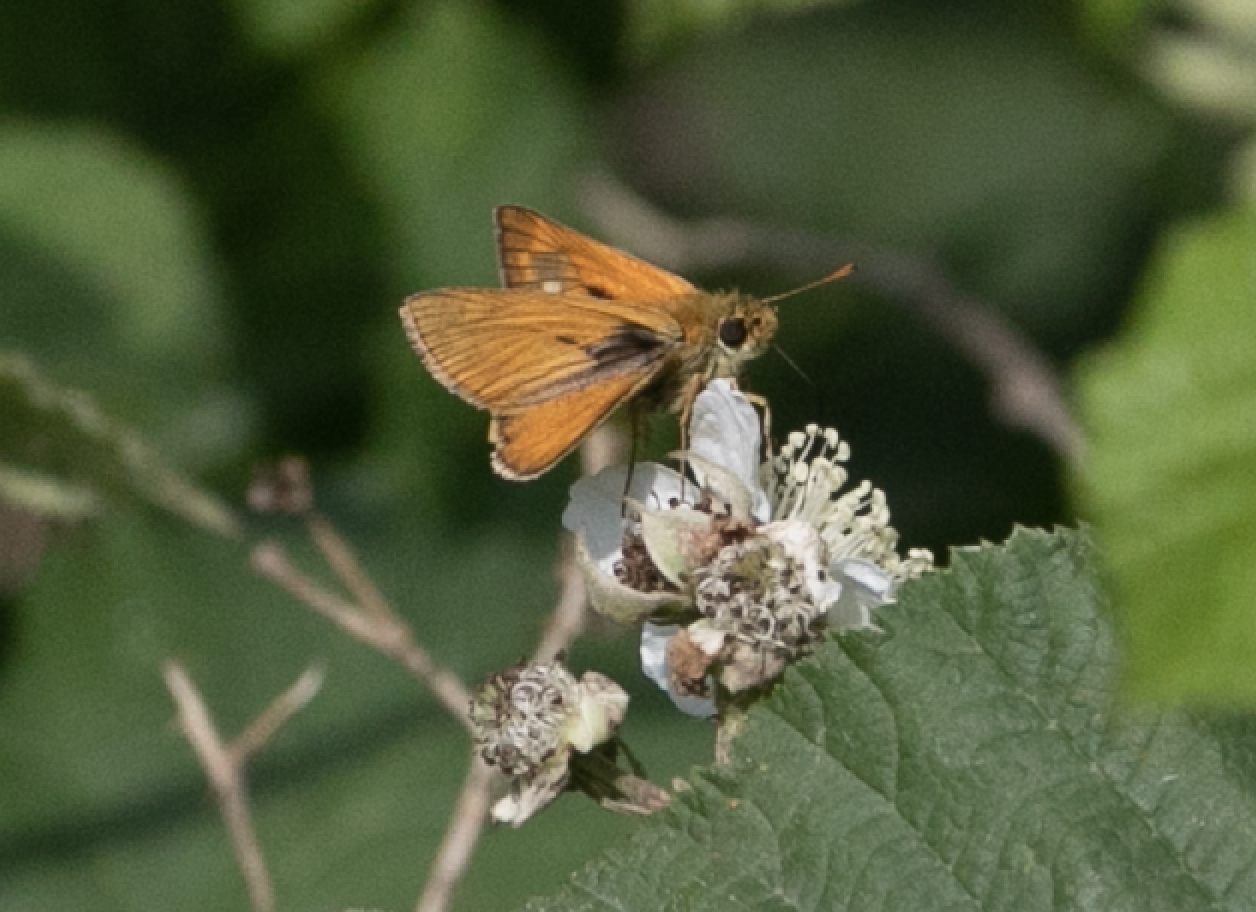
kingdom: Animalia
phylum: Arthropoda
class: Insecta
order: Lepidoptera
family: Hesperiidae
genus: Ochlodes
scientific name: Ochlodes venata
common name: Large skipper
